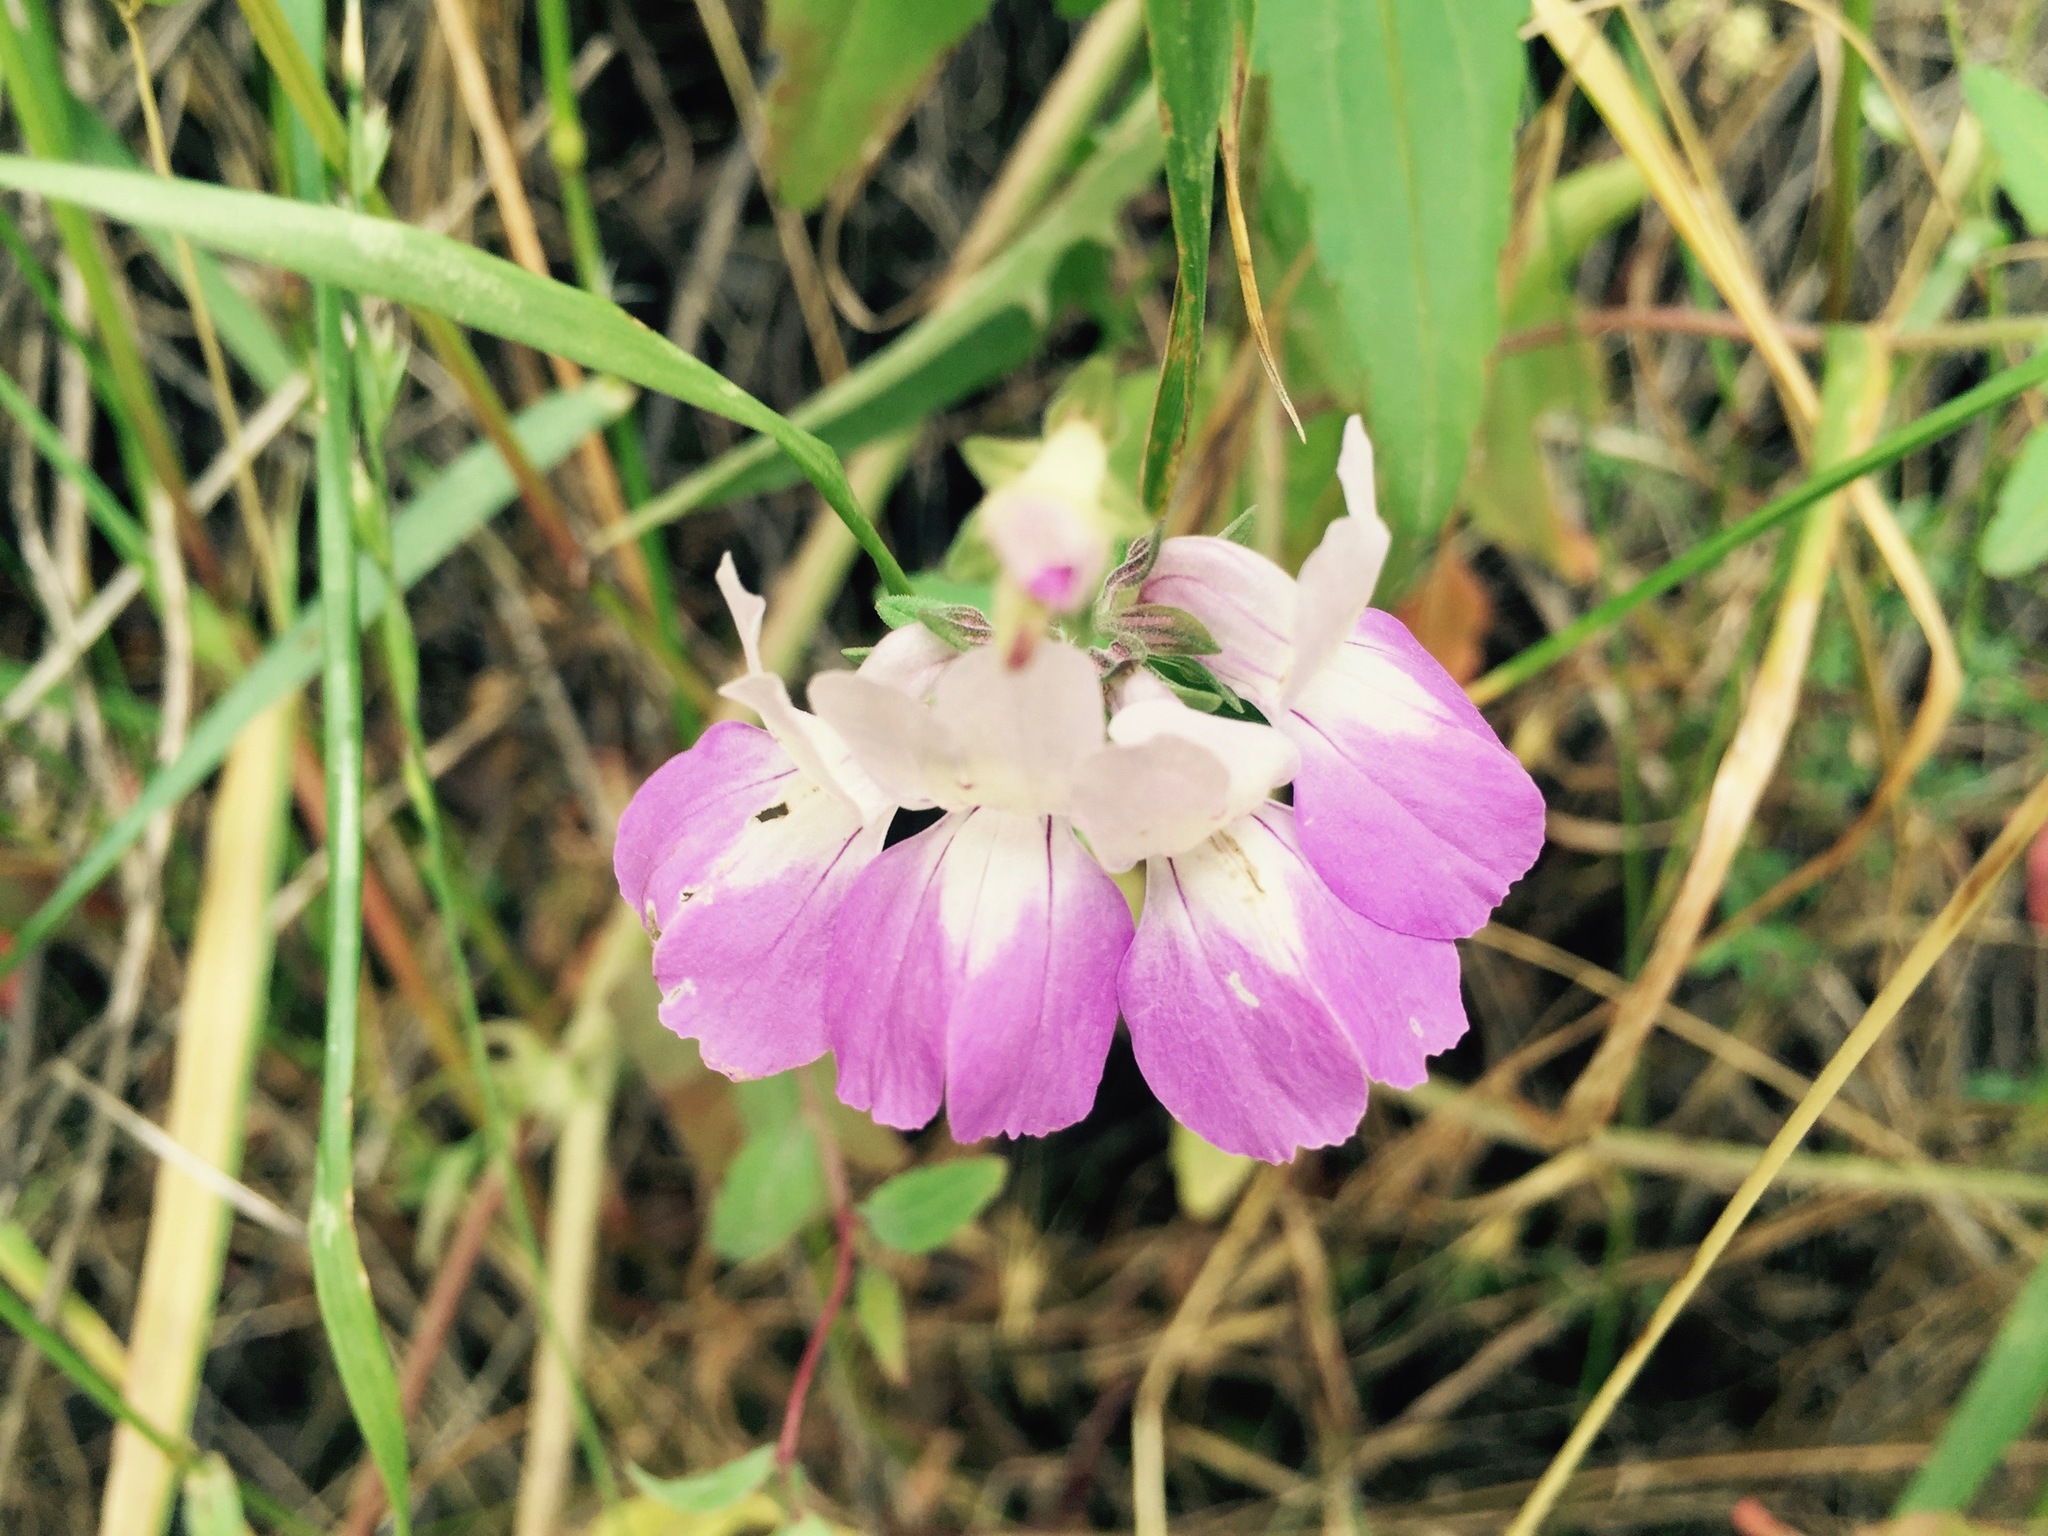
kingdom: Plantae
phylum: Tracheophyta
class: Magnoliopsida
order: Lamiales
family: Plantaginaceae
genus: Collinsia
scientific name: Collinsia heterophylla
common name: Chinese-houses
